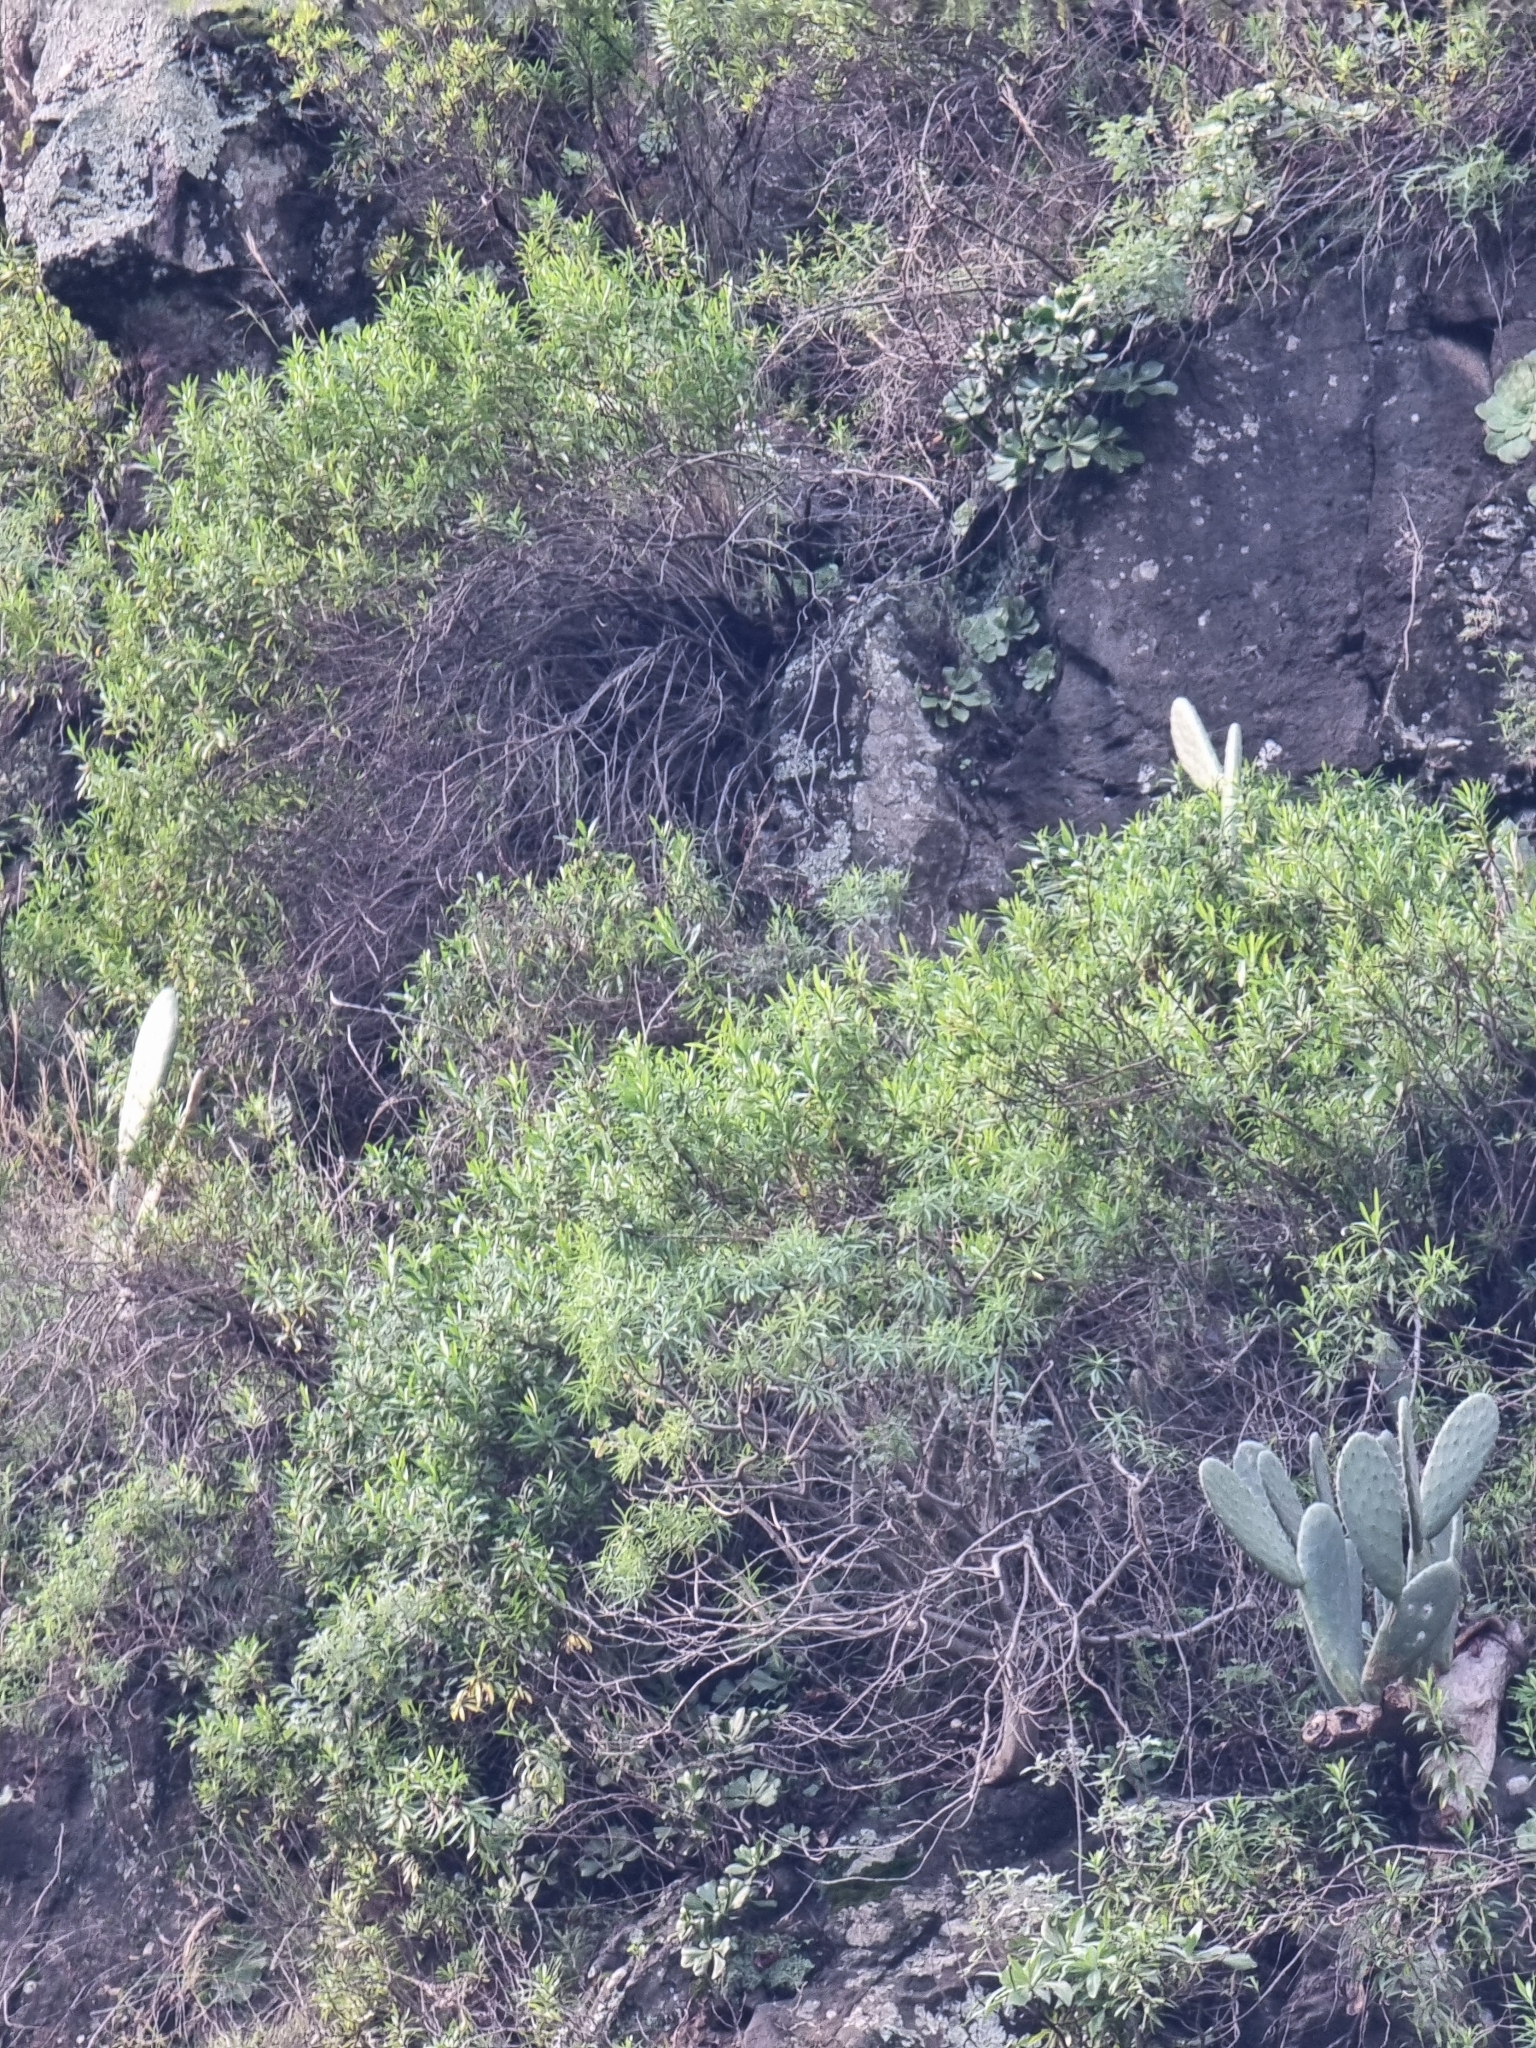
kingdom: Plantae
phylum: Tracheophyta
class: Magnoliopsida
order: Lamiales
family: Plantaginaceae
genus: Globularia
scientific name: Globularia salicina
